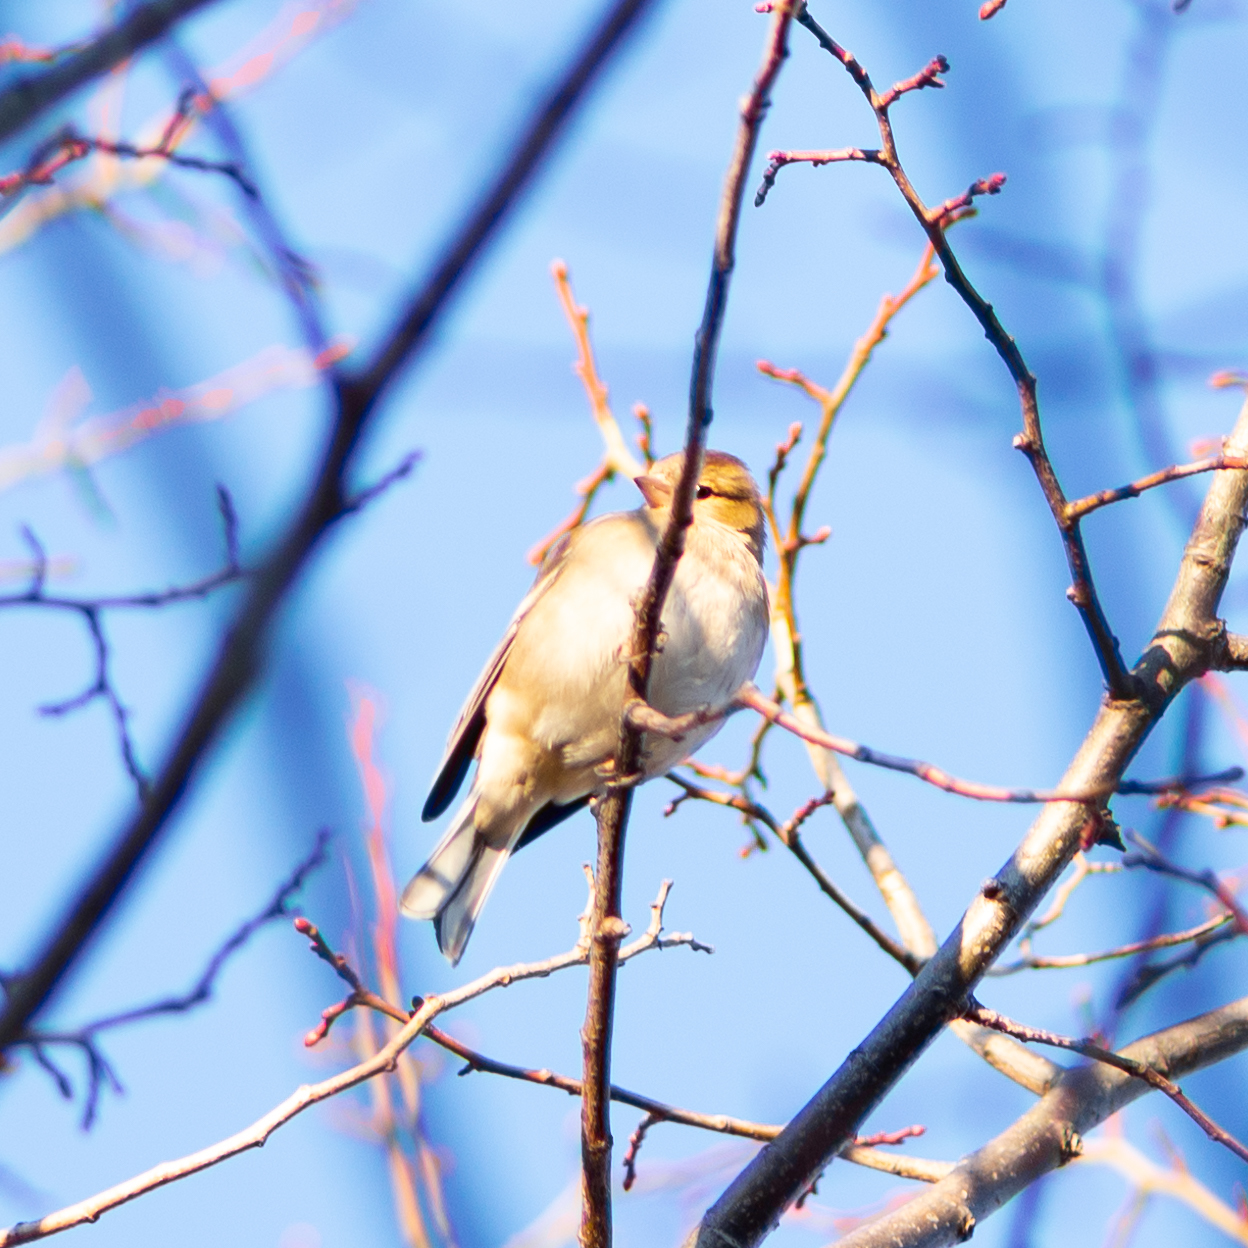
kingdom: Animalia
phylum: Chordata
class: Aves
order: Passeriformes
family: Fringillidae
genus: Fringilla
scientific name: Fringilla coelebs
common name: Common chaffinch
